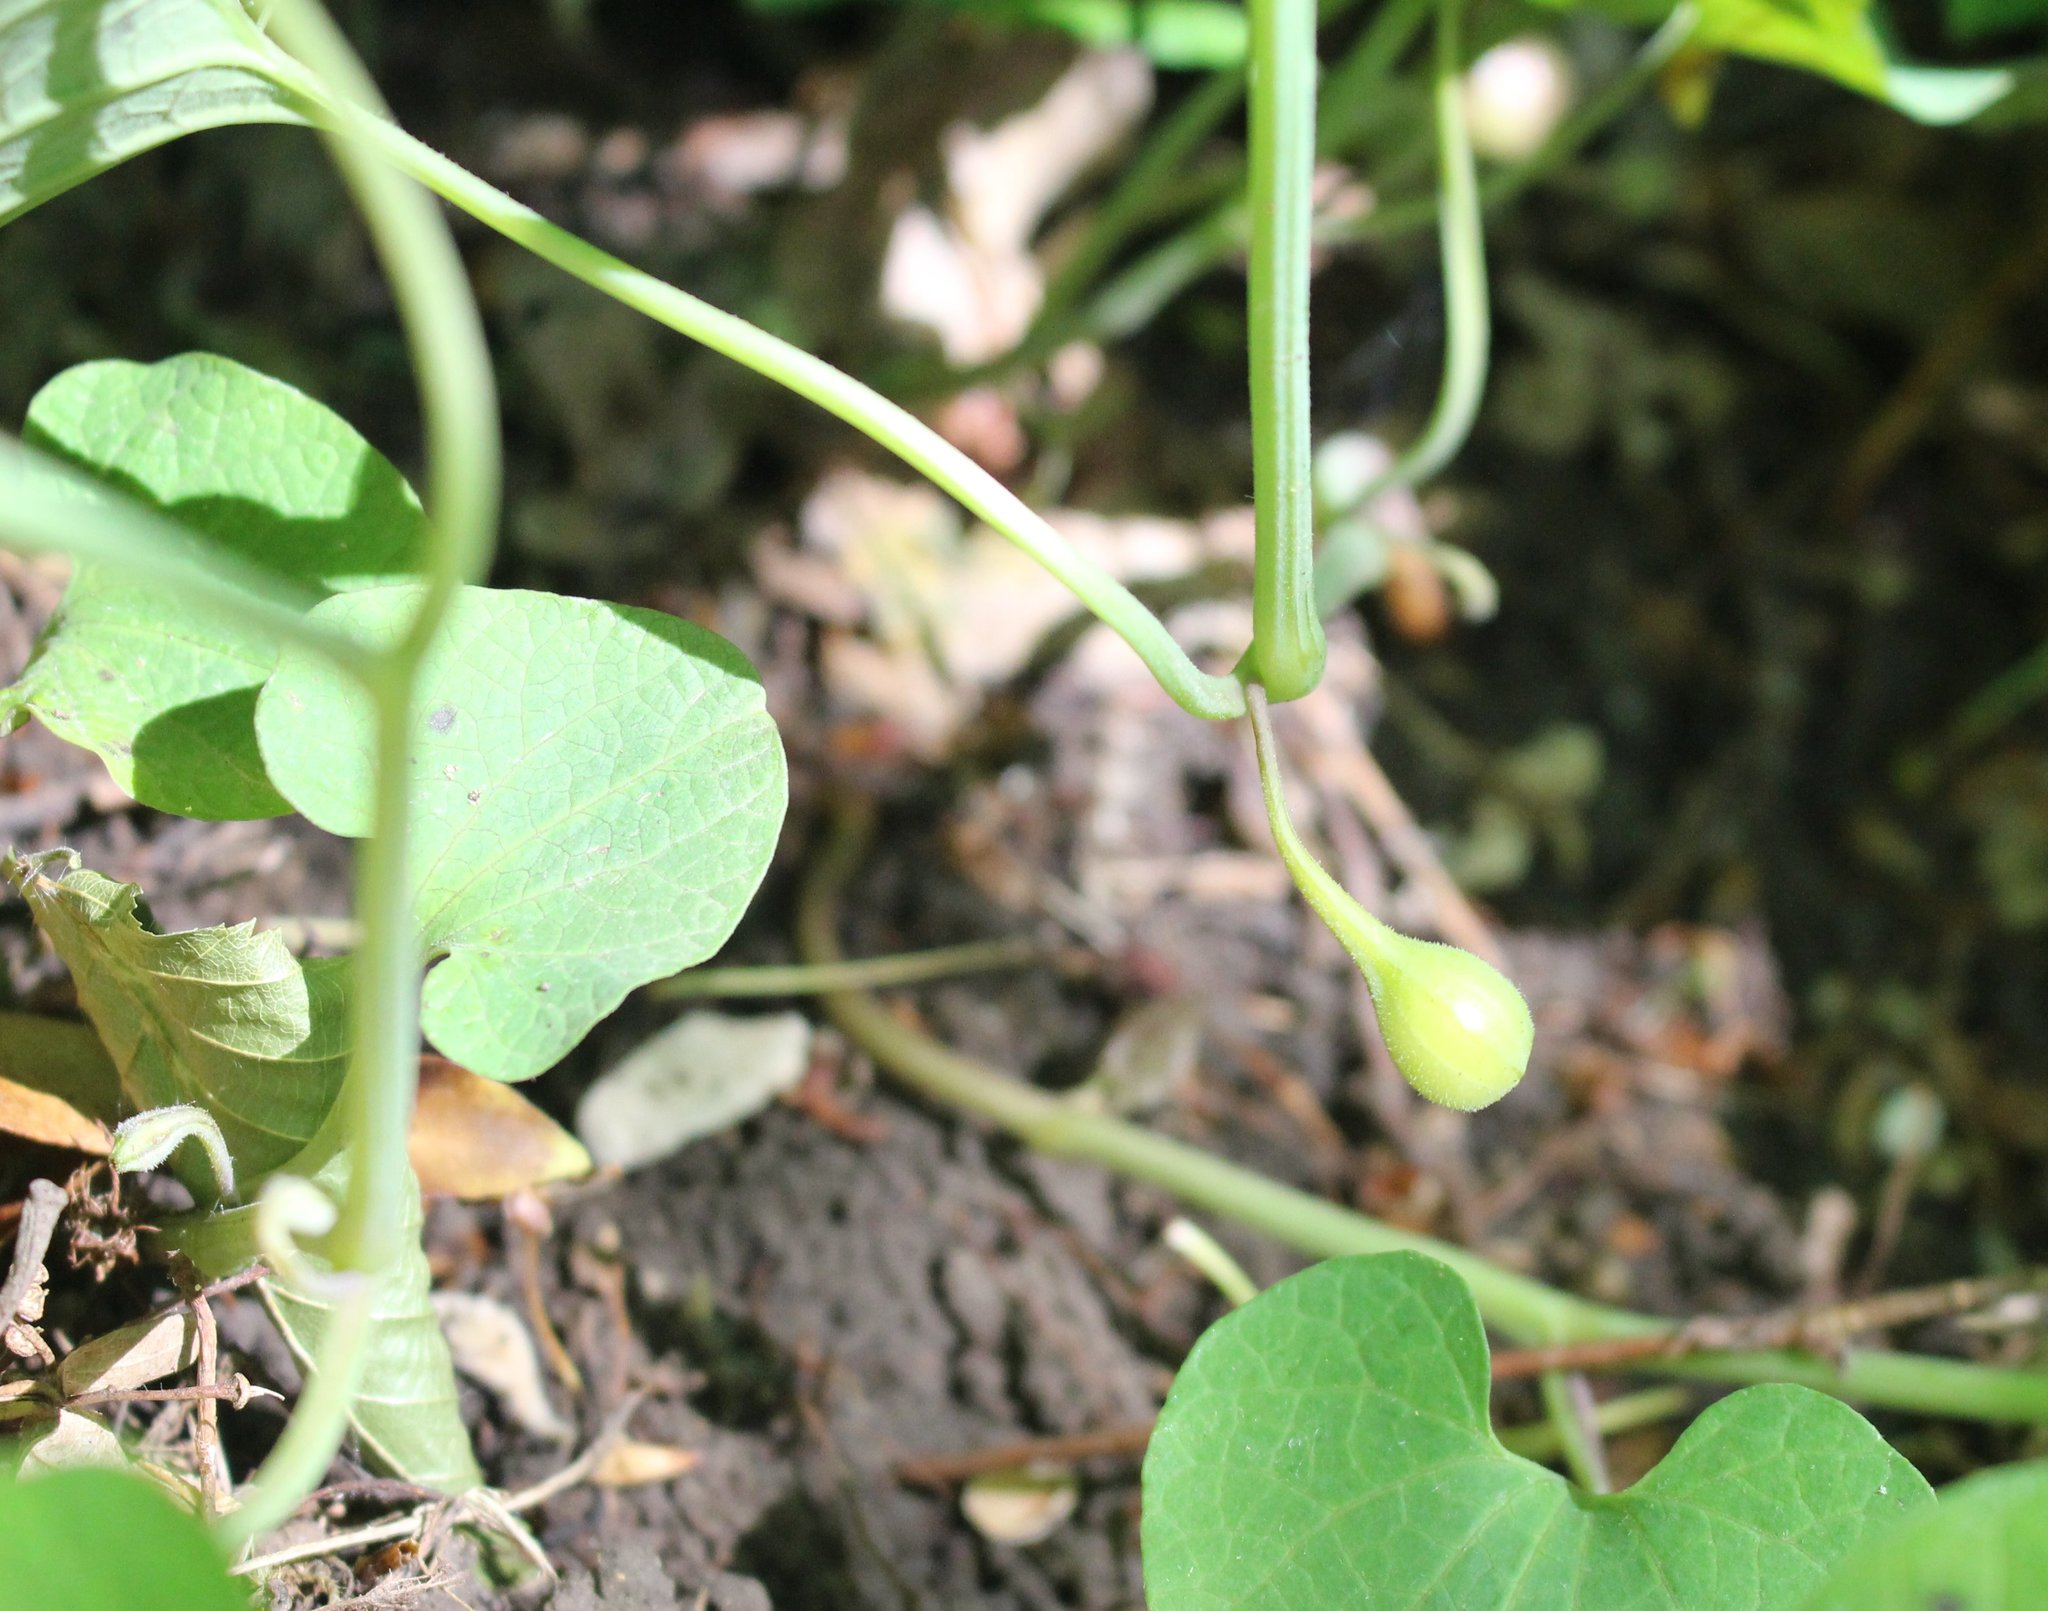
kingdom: Plantae
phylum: Tracheophyta
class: Magnoliopsida
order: Piperales
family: Aristolochiaceae
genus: Aristolochia
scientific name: Aristolochia steupii
